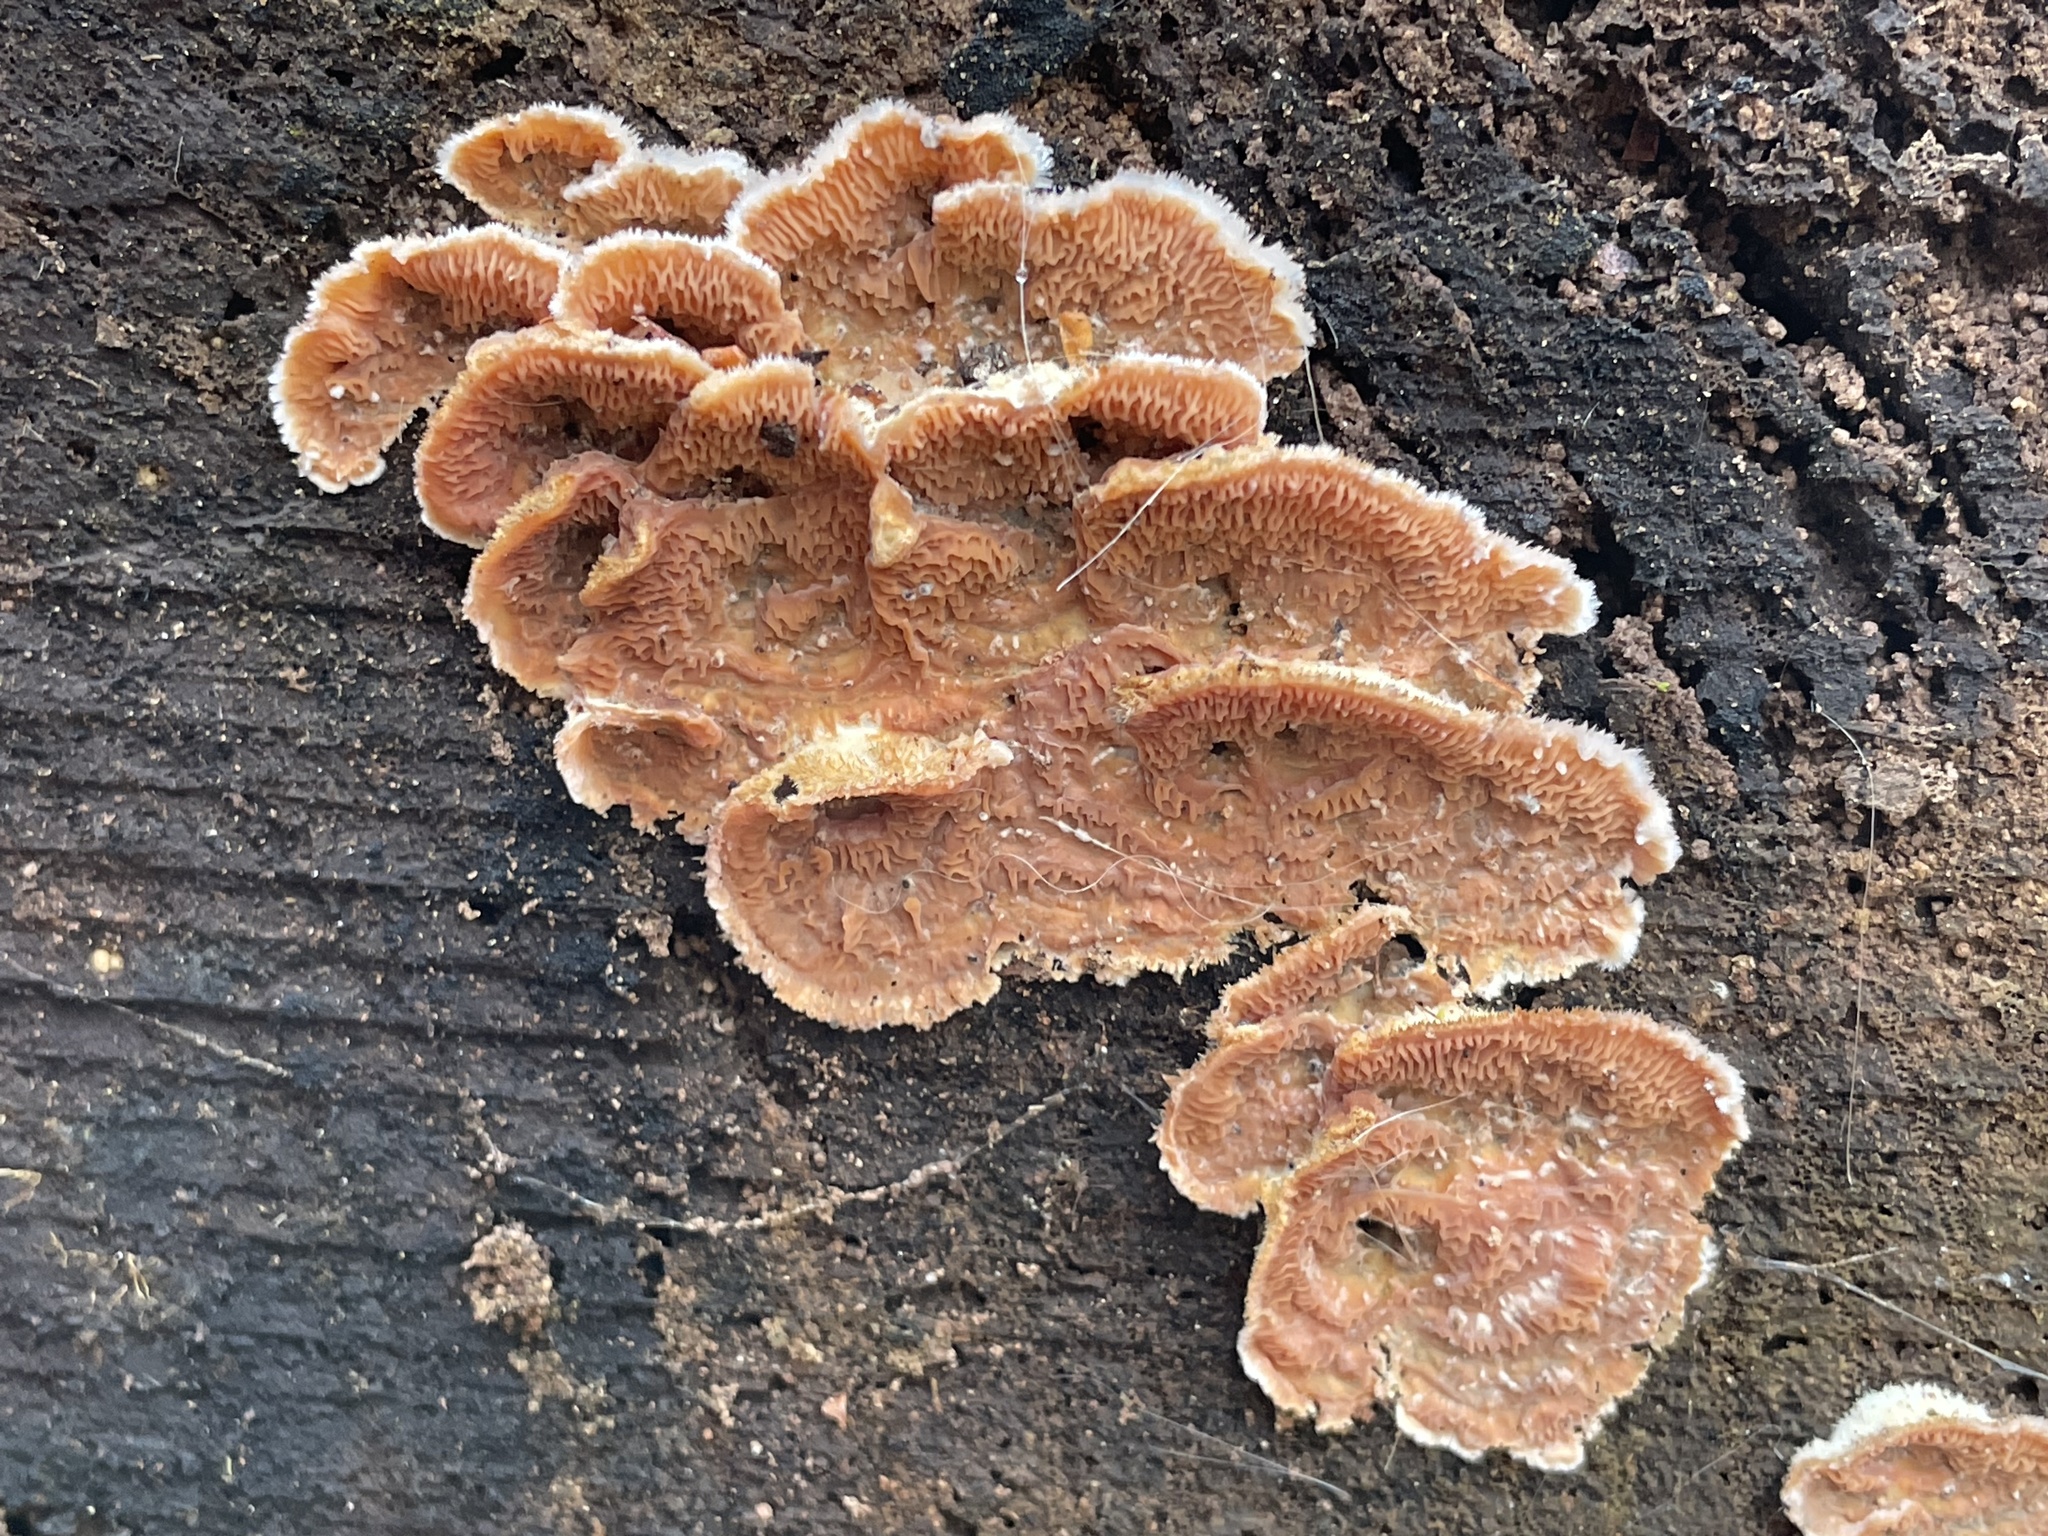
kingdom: Fungi
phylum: Basidiomycota
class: Agaricomycetes
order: Polyporales
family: Meruliaceae
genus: Phlebia
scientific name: Phlebia tremellosa
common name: Jelly rot
